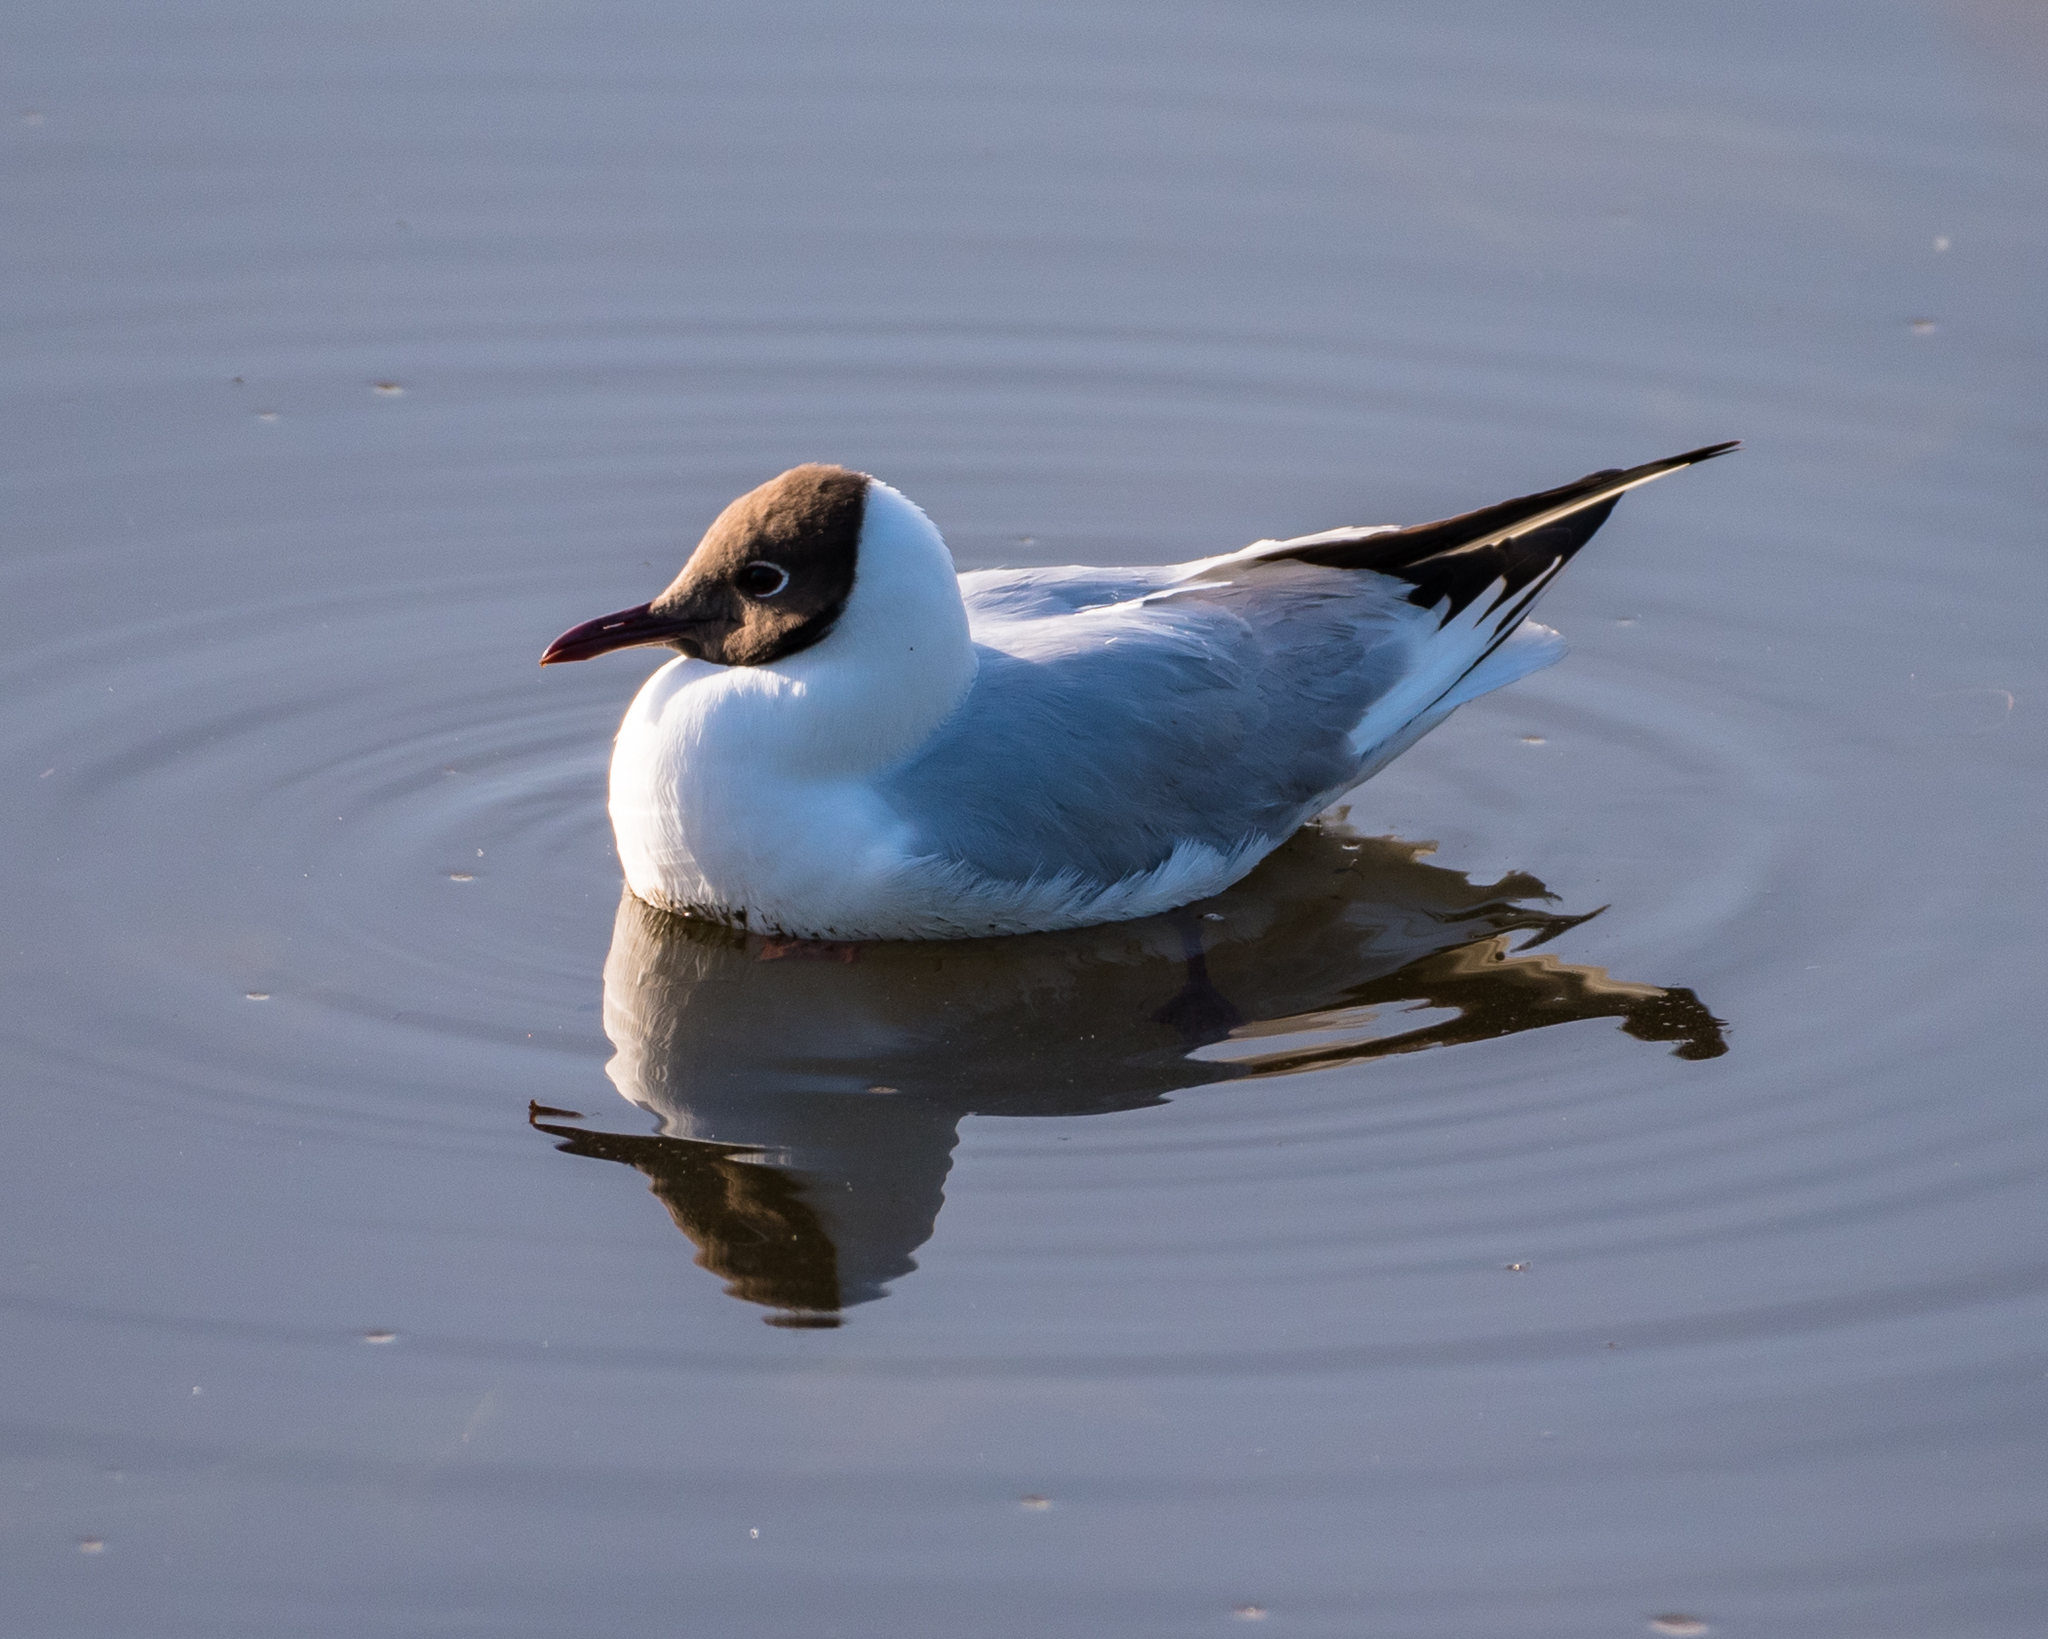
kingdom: Animalia
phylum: Chordata
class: Aves
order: Charadriiformes
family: Laridae
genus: Chroicocephalus
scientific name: Chroicocephalus ridibundus
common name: Black-headed gull
